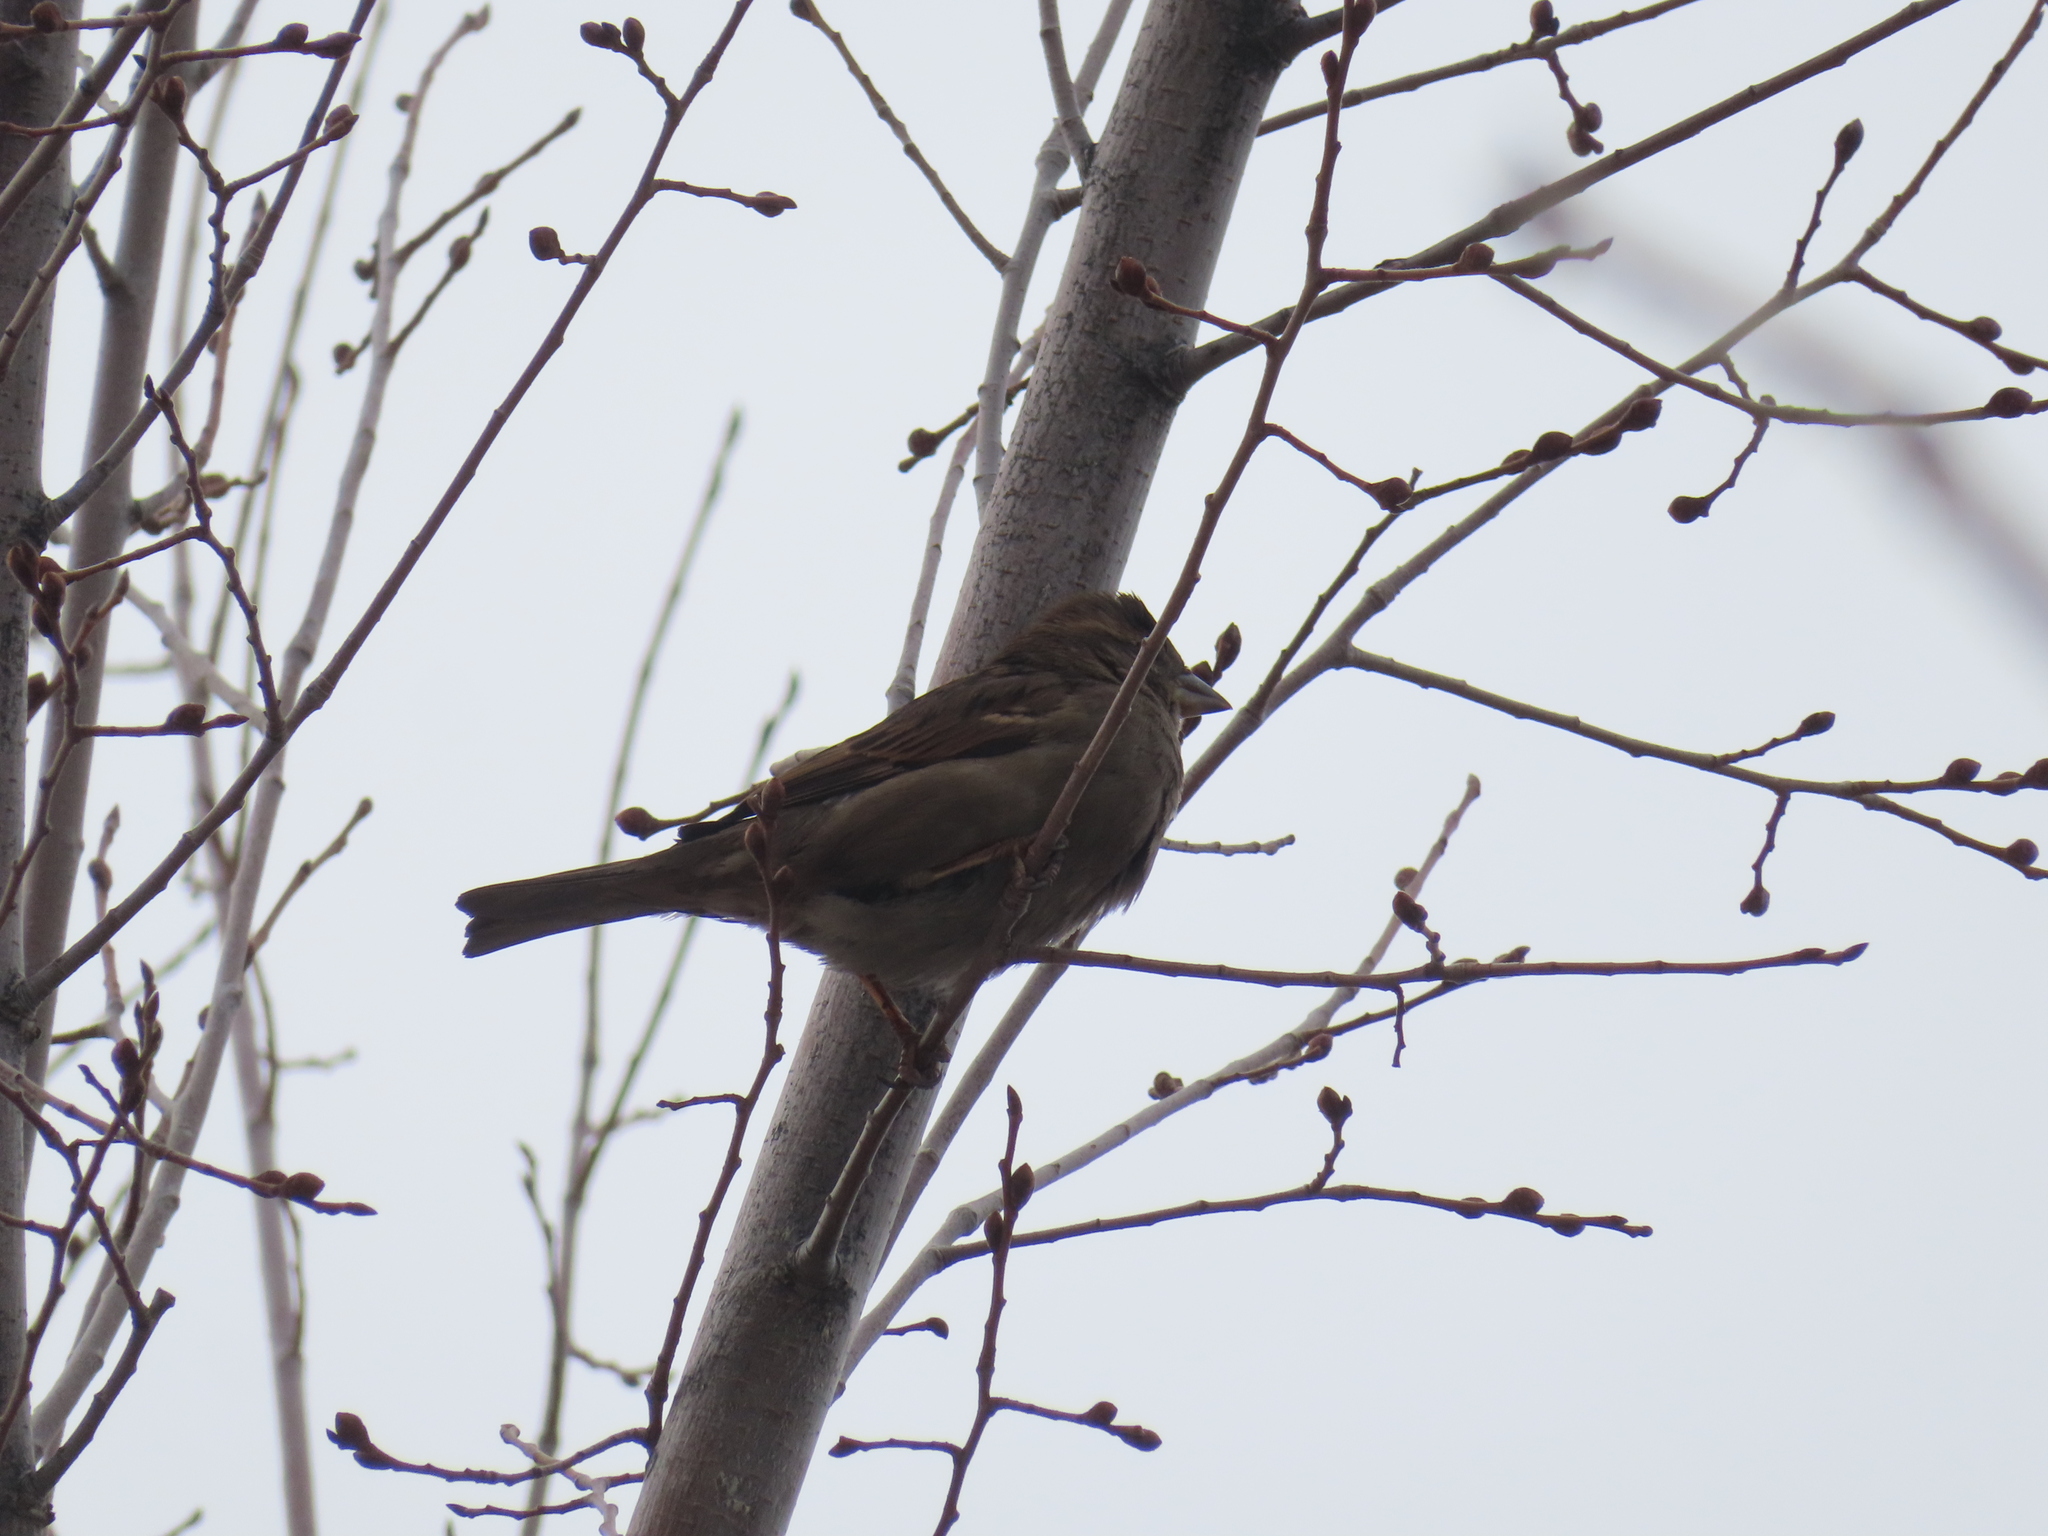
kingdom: Animalia
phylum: Chordata
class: Aves
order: Passeriformes
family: Passeridae
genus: Passer
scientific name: Passer domesticus
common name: House sparrow
